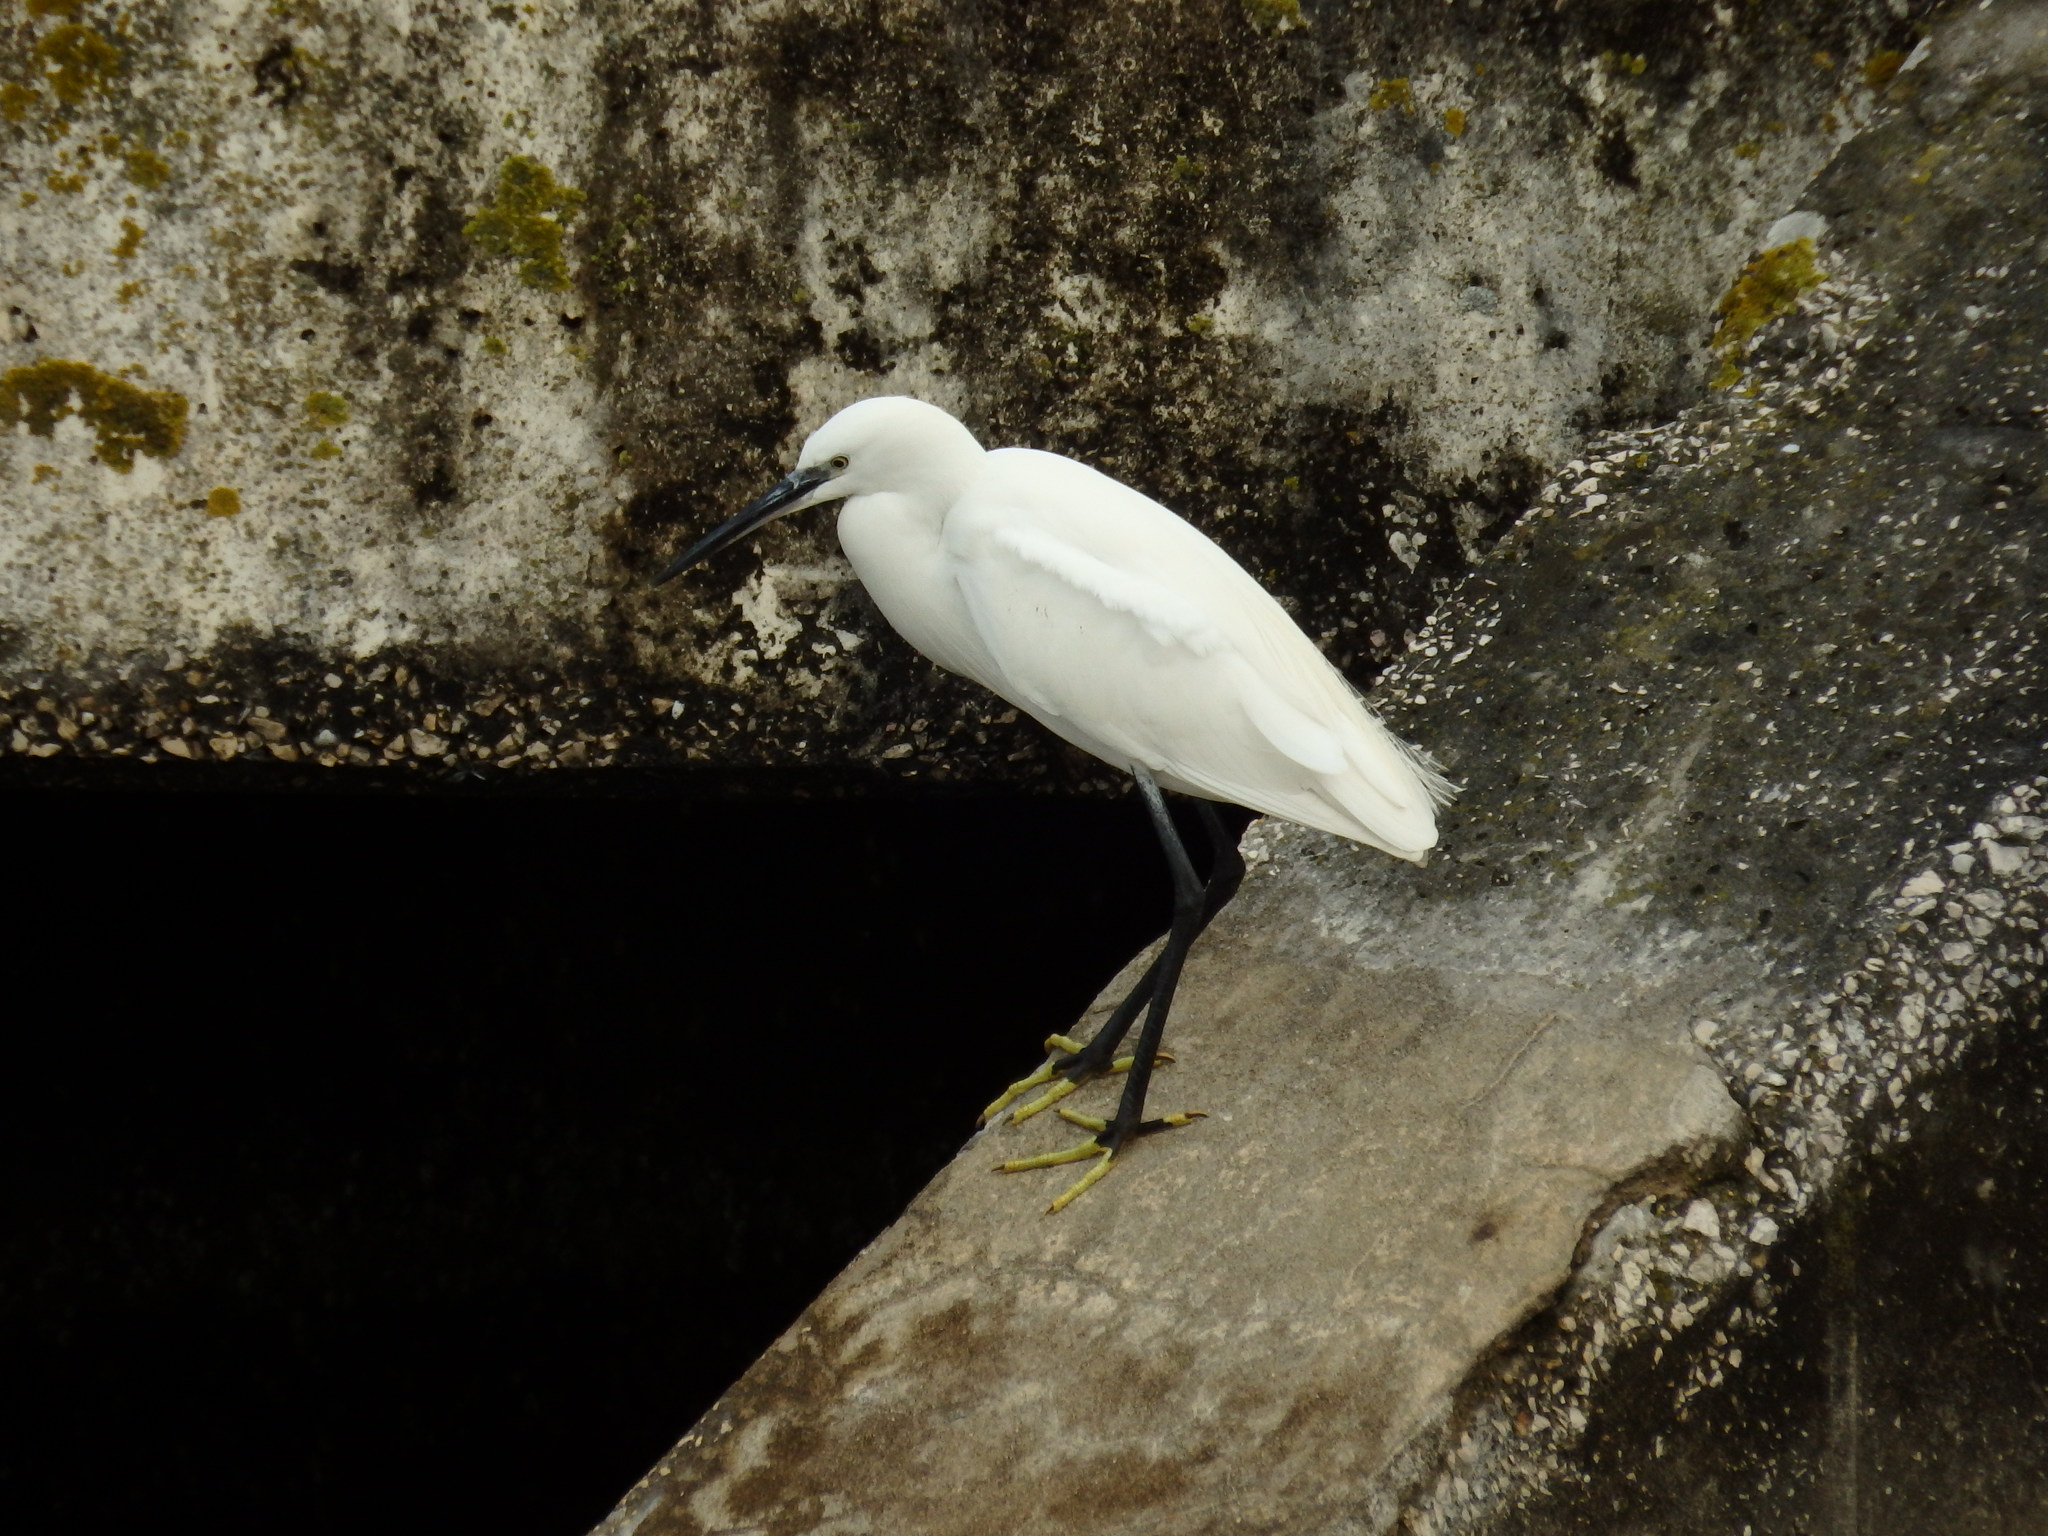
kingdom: Animalia
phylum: Chordata
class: Aves
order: Pelecaniformes
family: Ardeidae
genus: Egretta
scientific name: Egretta garzetta
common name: Little egret
